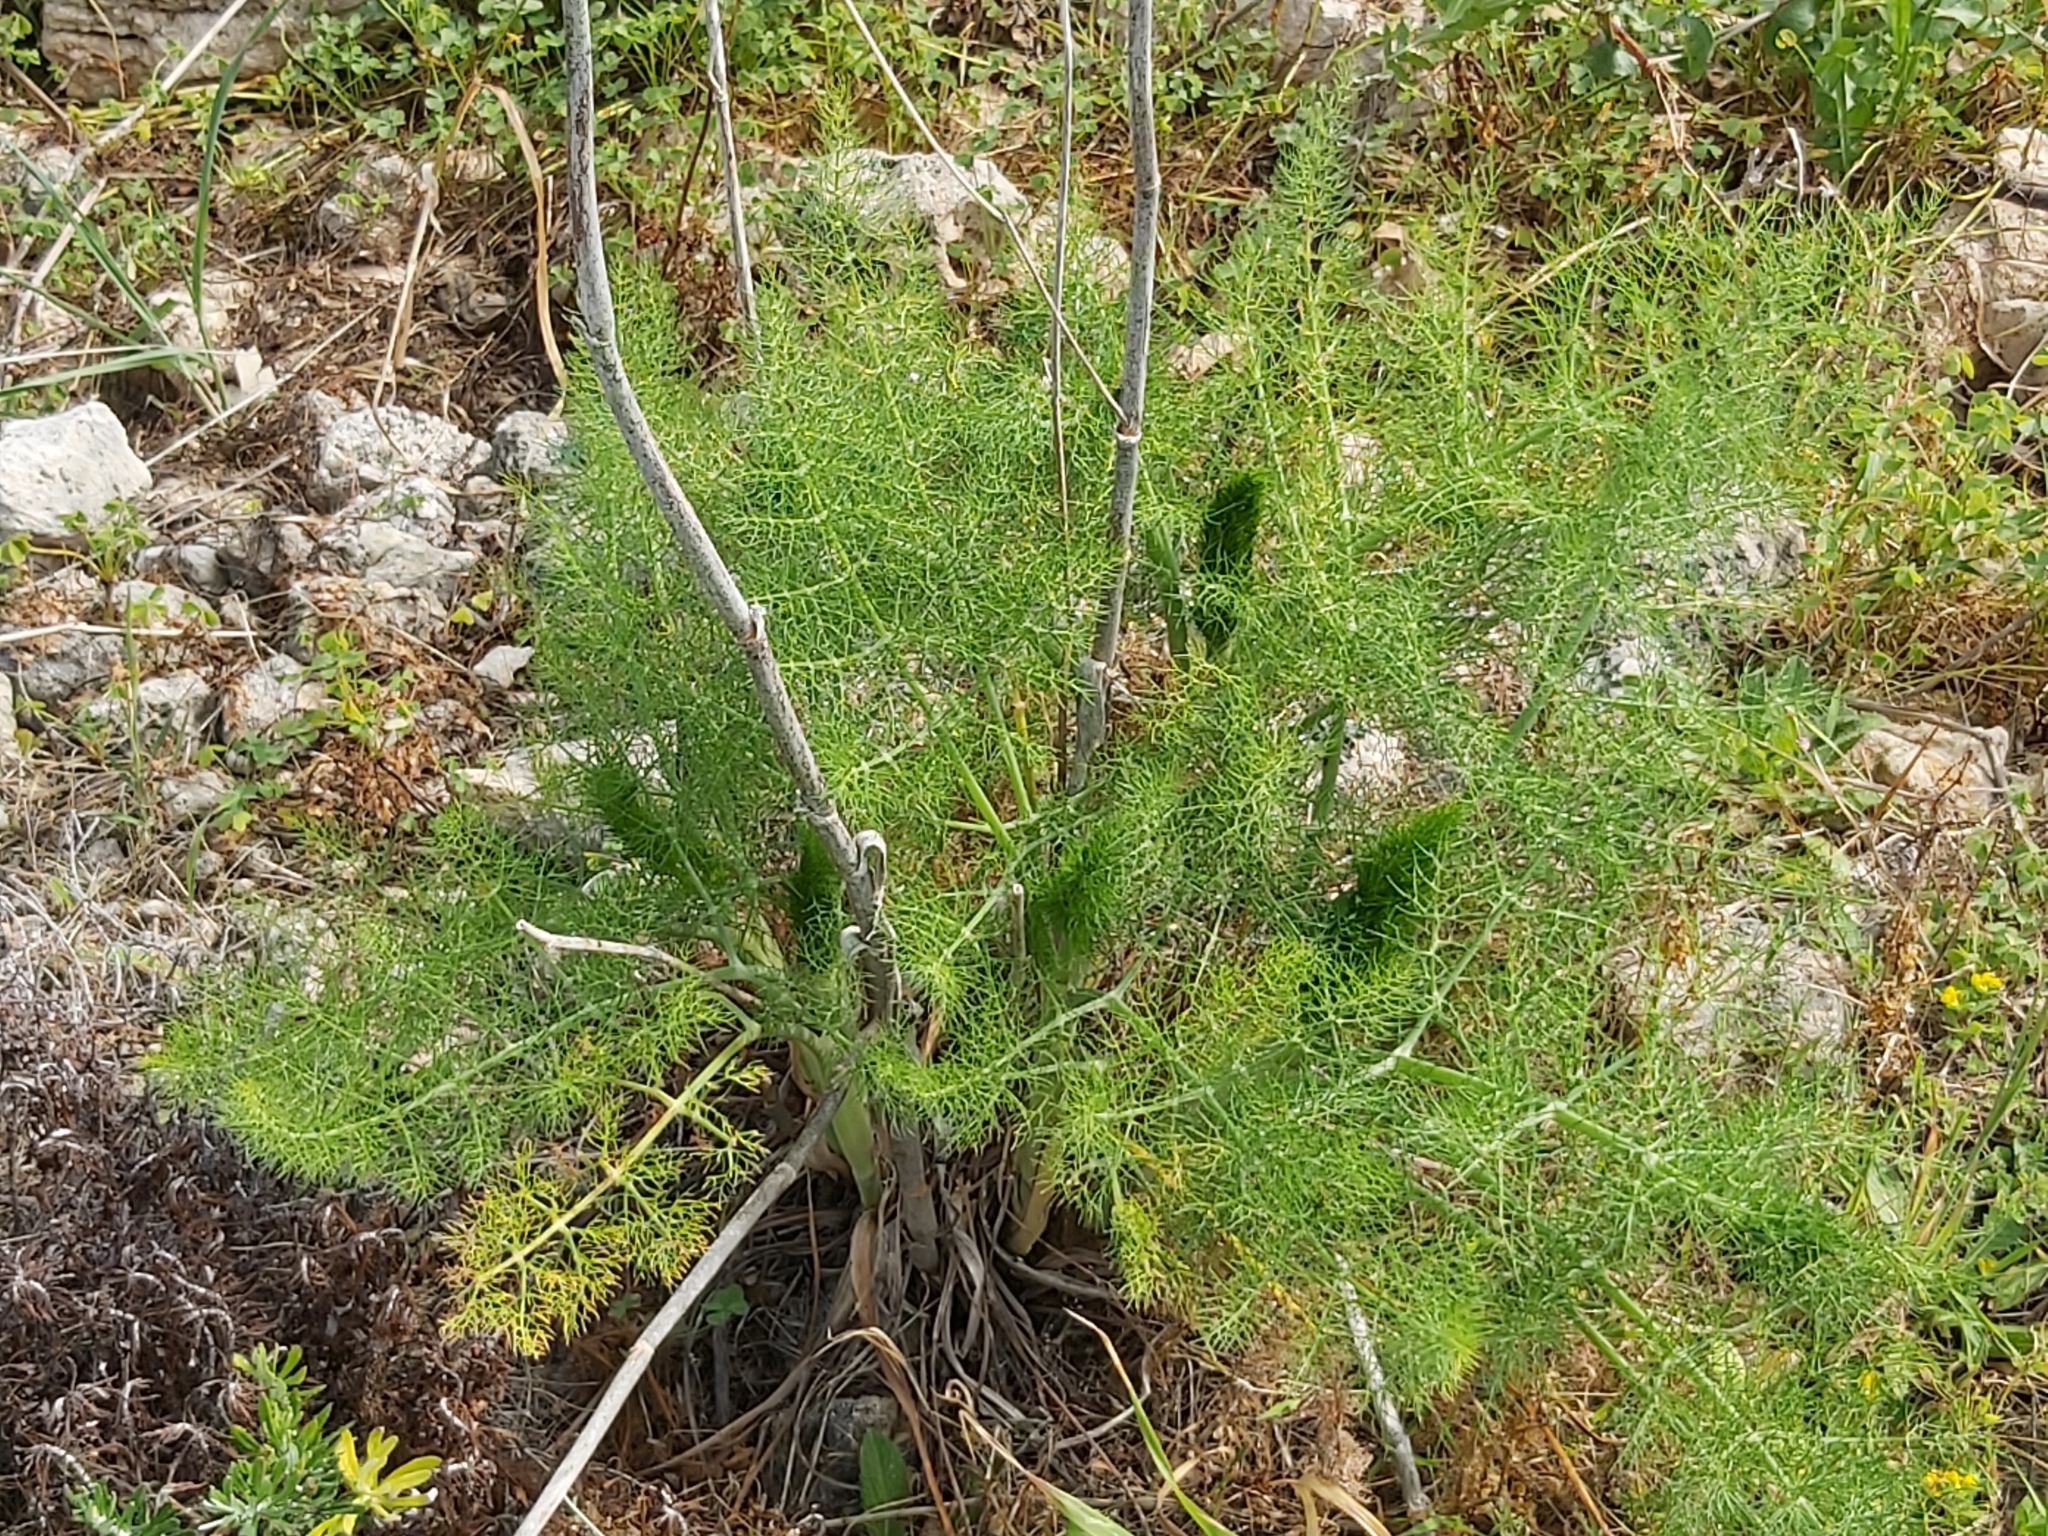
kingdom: Plantae
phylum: Tracheophyta
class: Magnoliopsida
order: Apiales
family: Apiaceae
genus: Foeniculum
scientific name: Foeniculum vulgare
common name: Fennel
